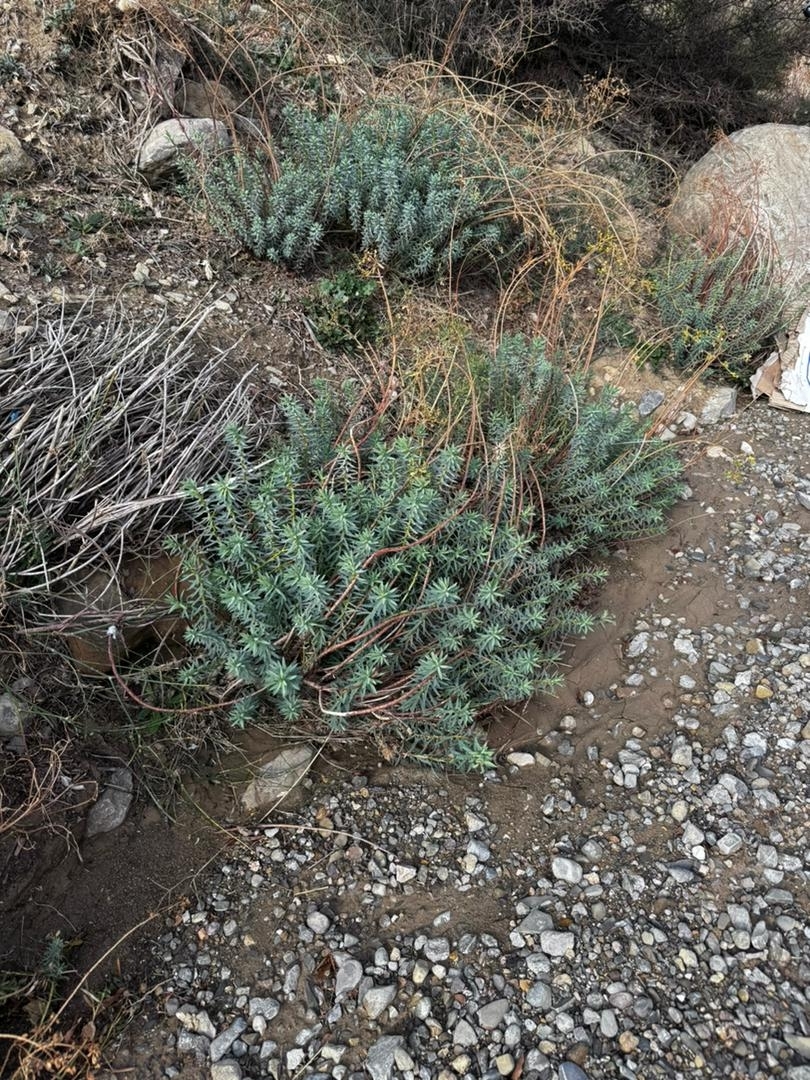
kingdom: Plantae
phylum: Tracheophyta
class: Magnoliopsida
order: Malpighiales
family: Euphorbiaceae
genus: Euphorbia
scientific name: Euphorbia nicaeensis
